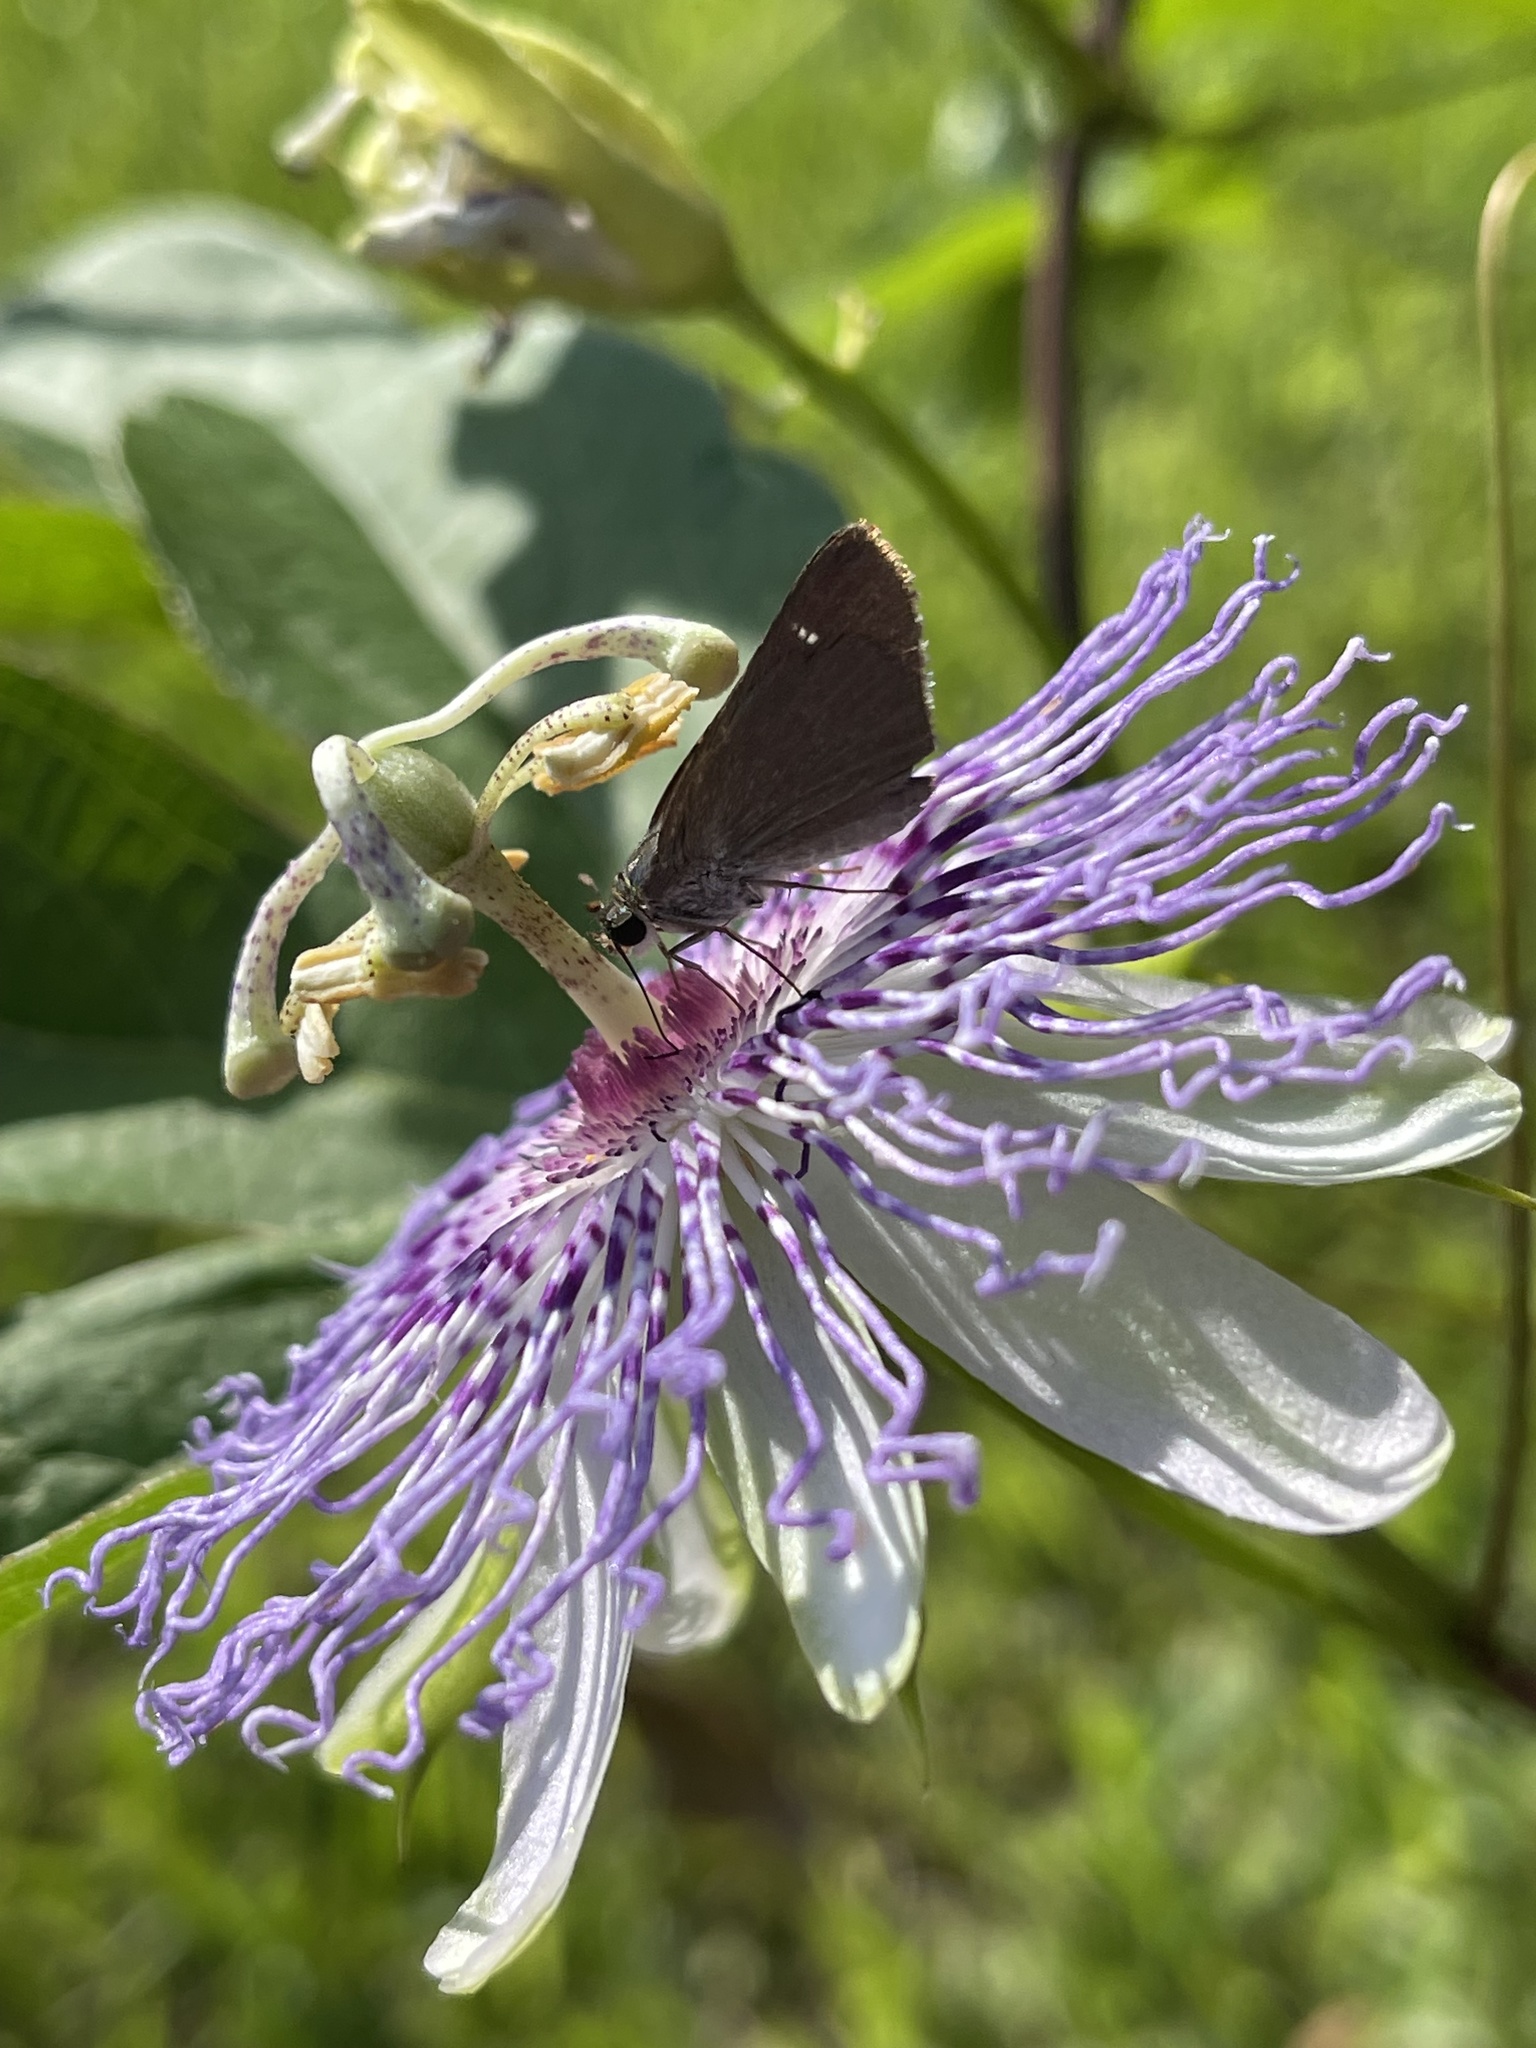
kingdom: Animalia
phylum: Arthropoda
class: Insecta
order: Lepidoptera
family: Hesperiidae
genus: Cymaenes
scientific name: Cymaenes tripunctus
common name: Dingy dotted skipper
